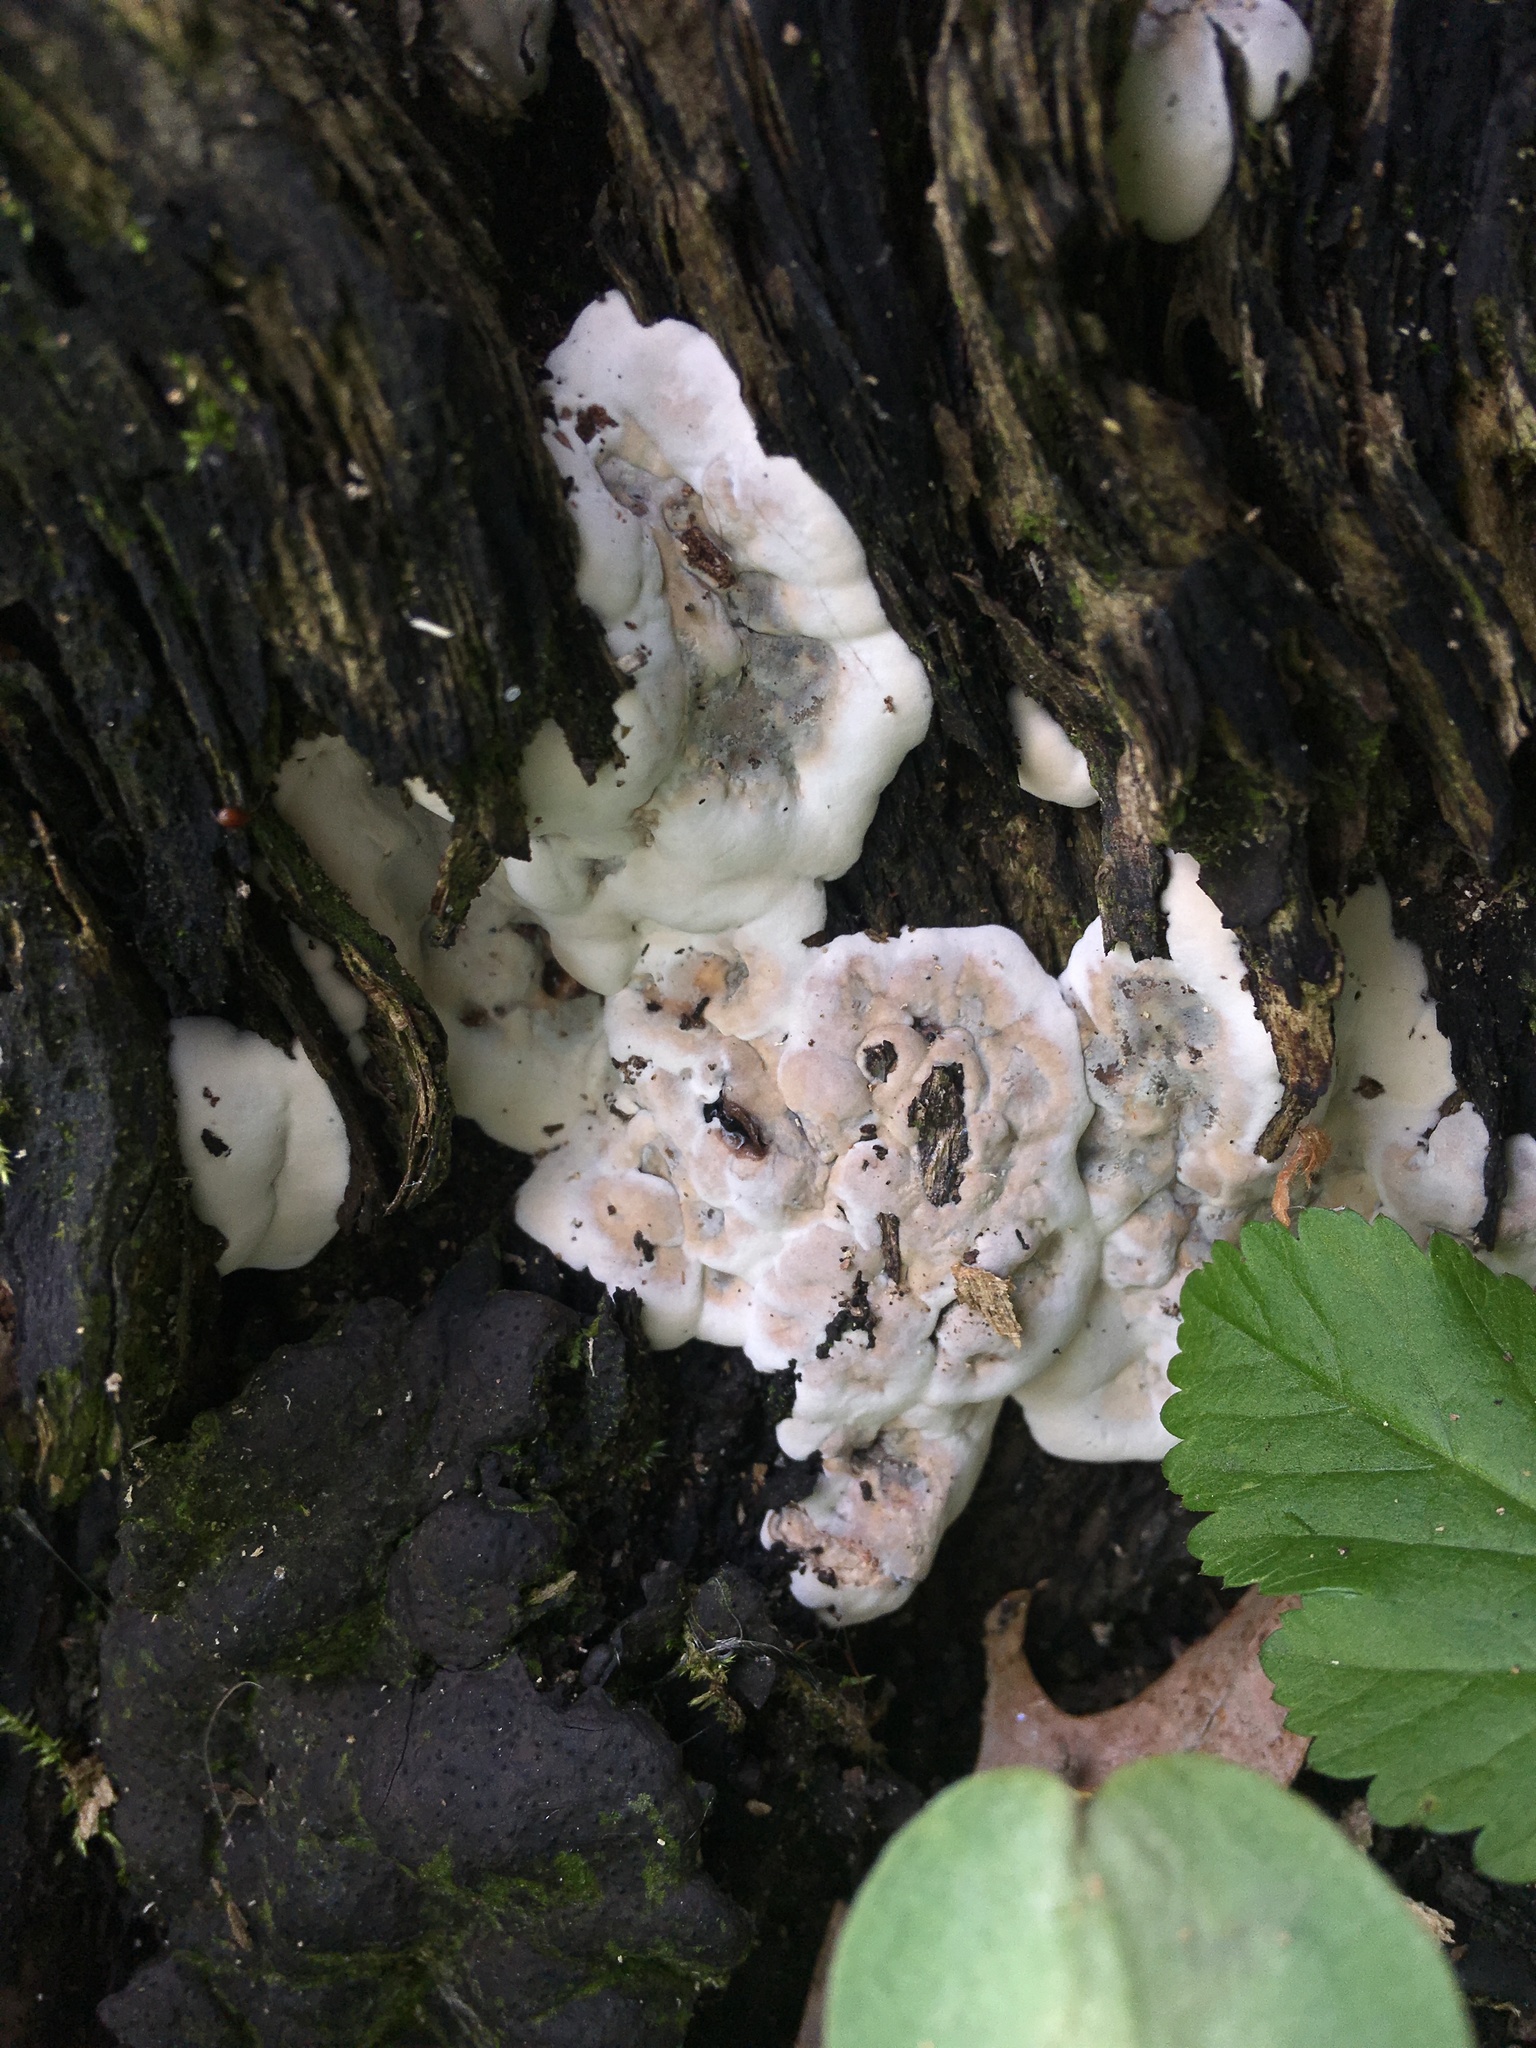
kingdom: Fungi
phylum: Ascomycota
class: Sordariomycetes
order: Xylariales
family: Xylariaceae
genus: Kretzschmaria
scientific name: Kretzschmaria deusta
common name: Brittle cinder
